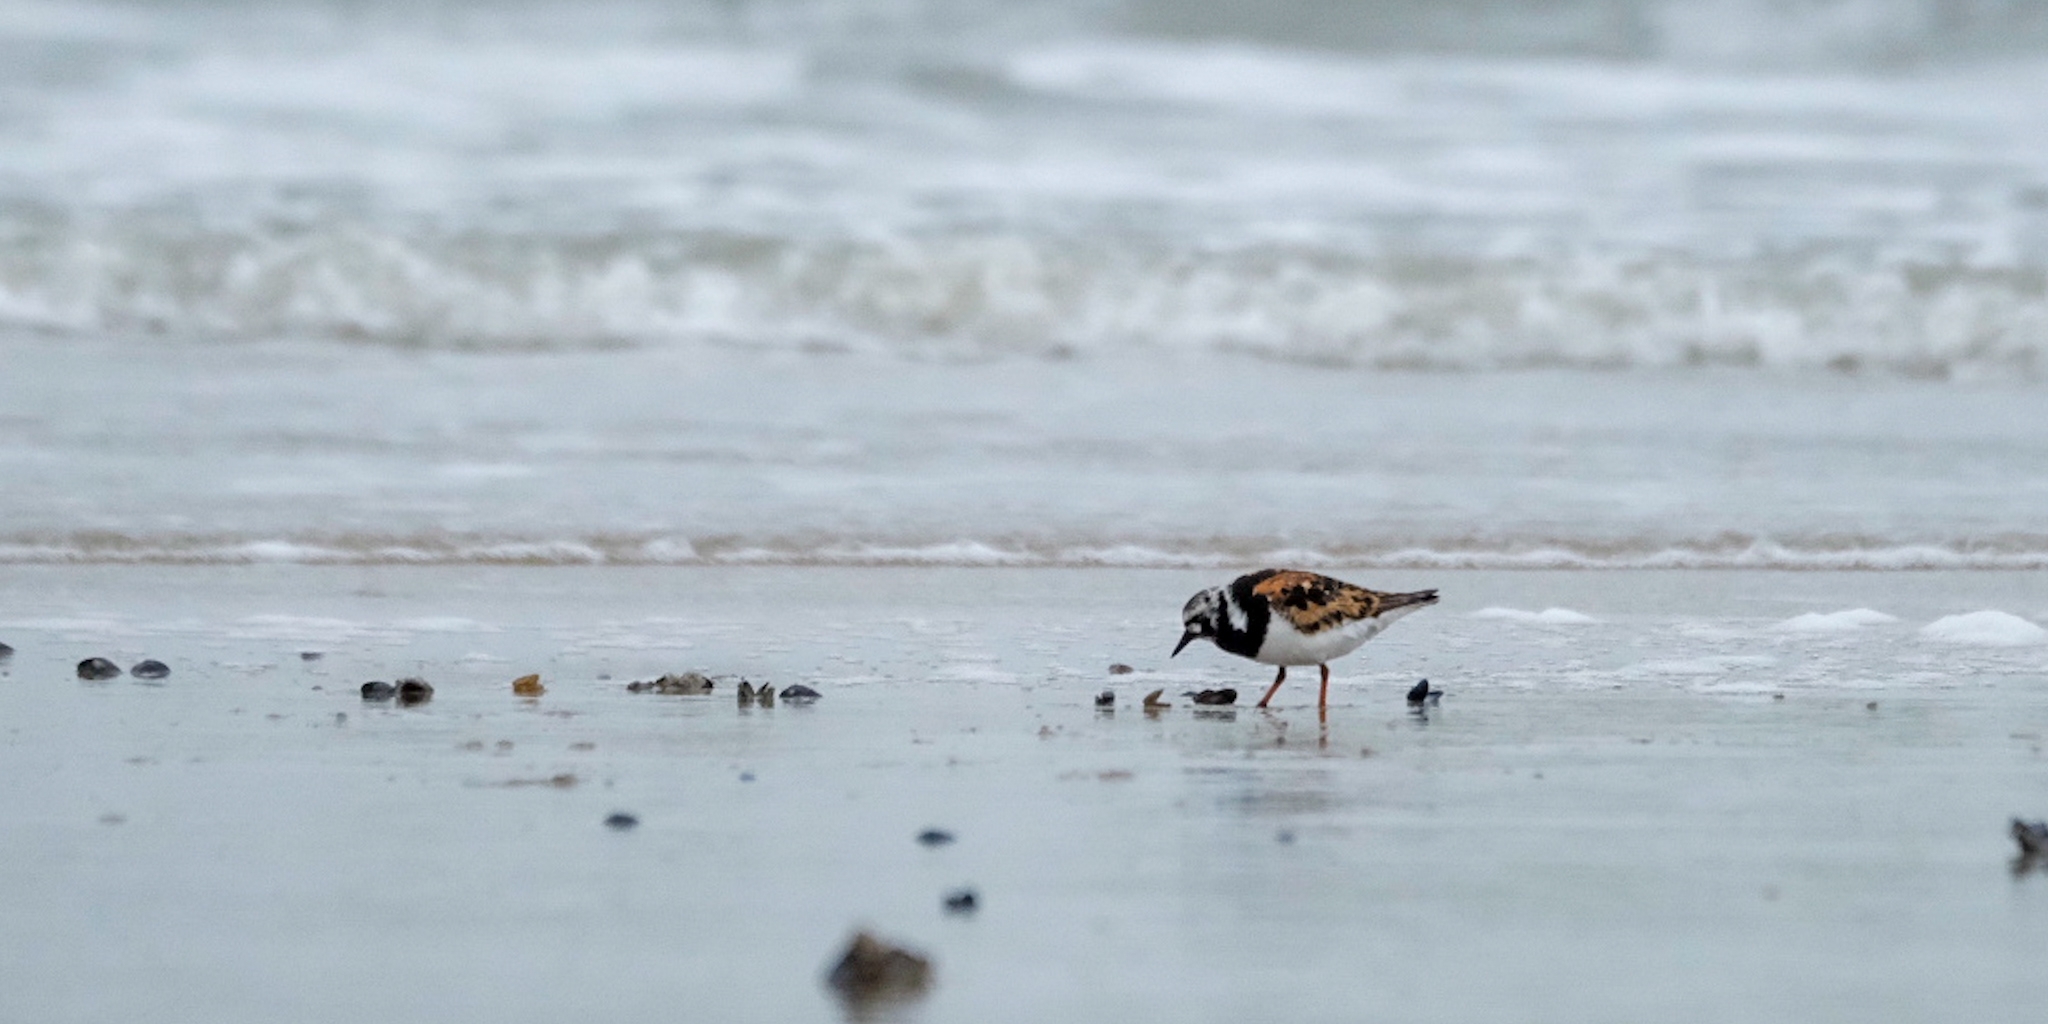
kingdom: Animalia
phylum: Chordata
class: Aves
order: Charadriiformes
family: Scolopacidae
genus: Arenaria
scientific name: Arenaria interpres
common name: Ruddy turnstone
